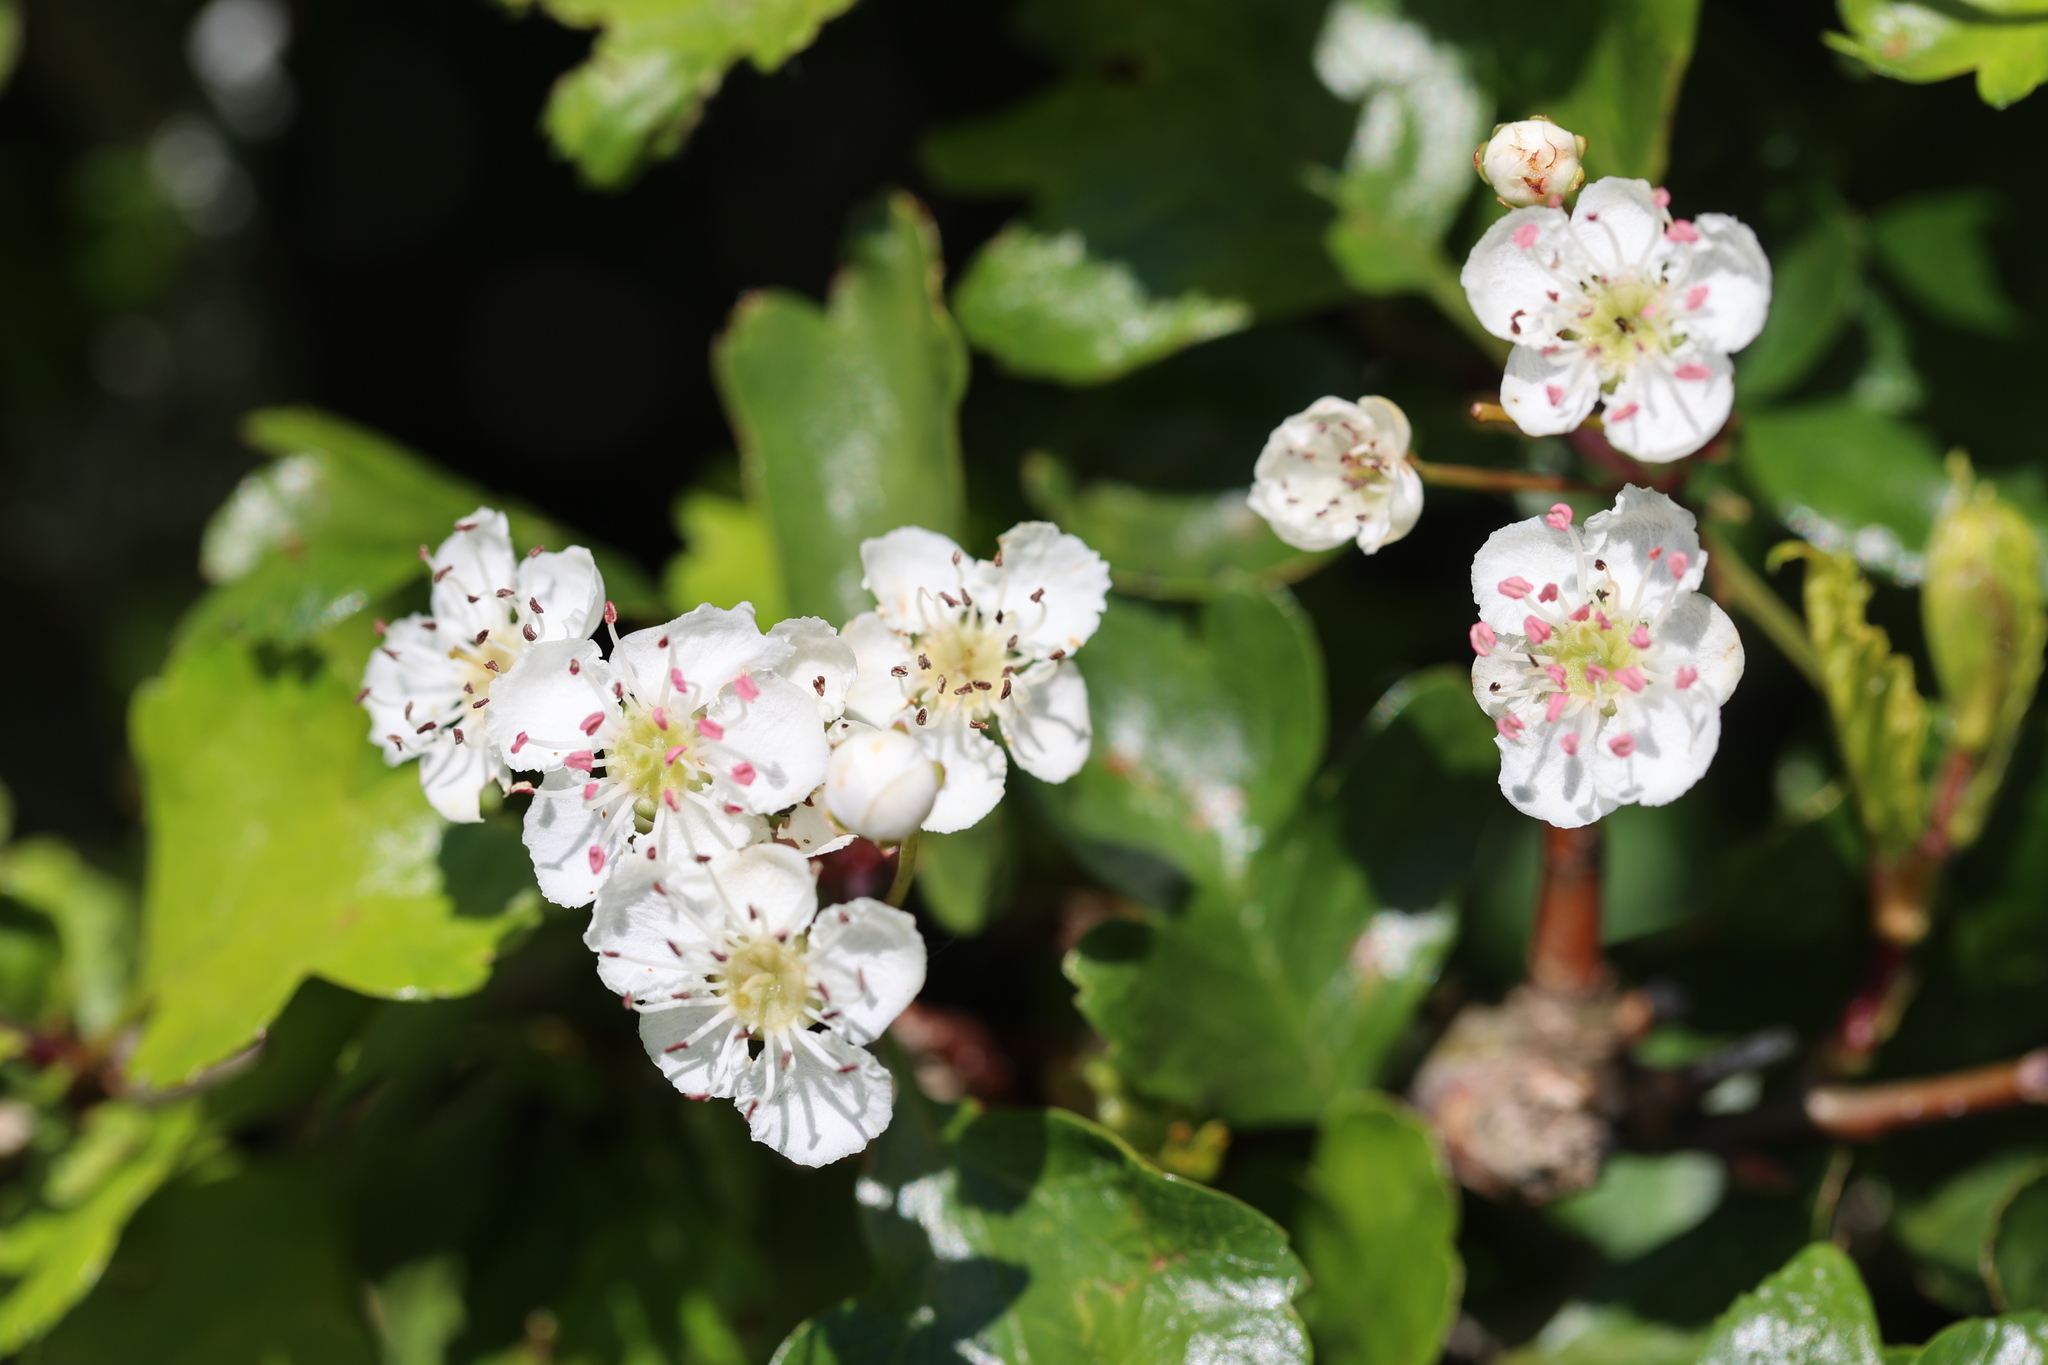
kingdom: Plantae
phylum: Tracheophyta
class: Magnoliopsida
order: Rosales
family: Rosaceae
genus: Crataegus
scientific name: Crataegus monogyna
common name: Hawthorn
